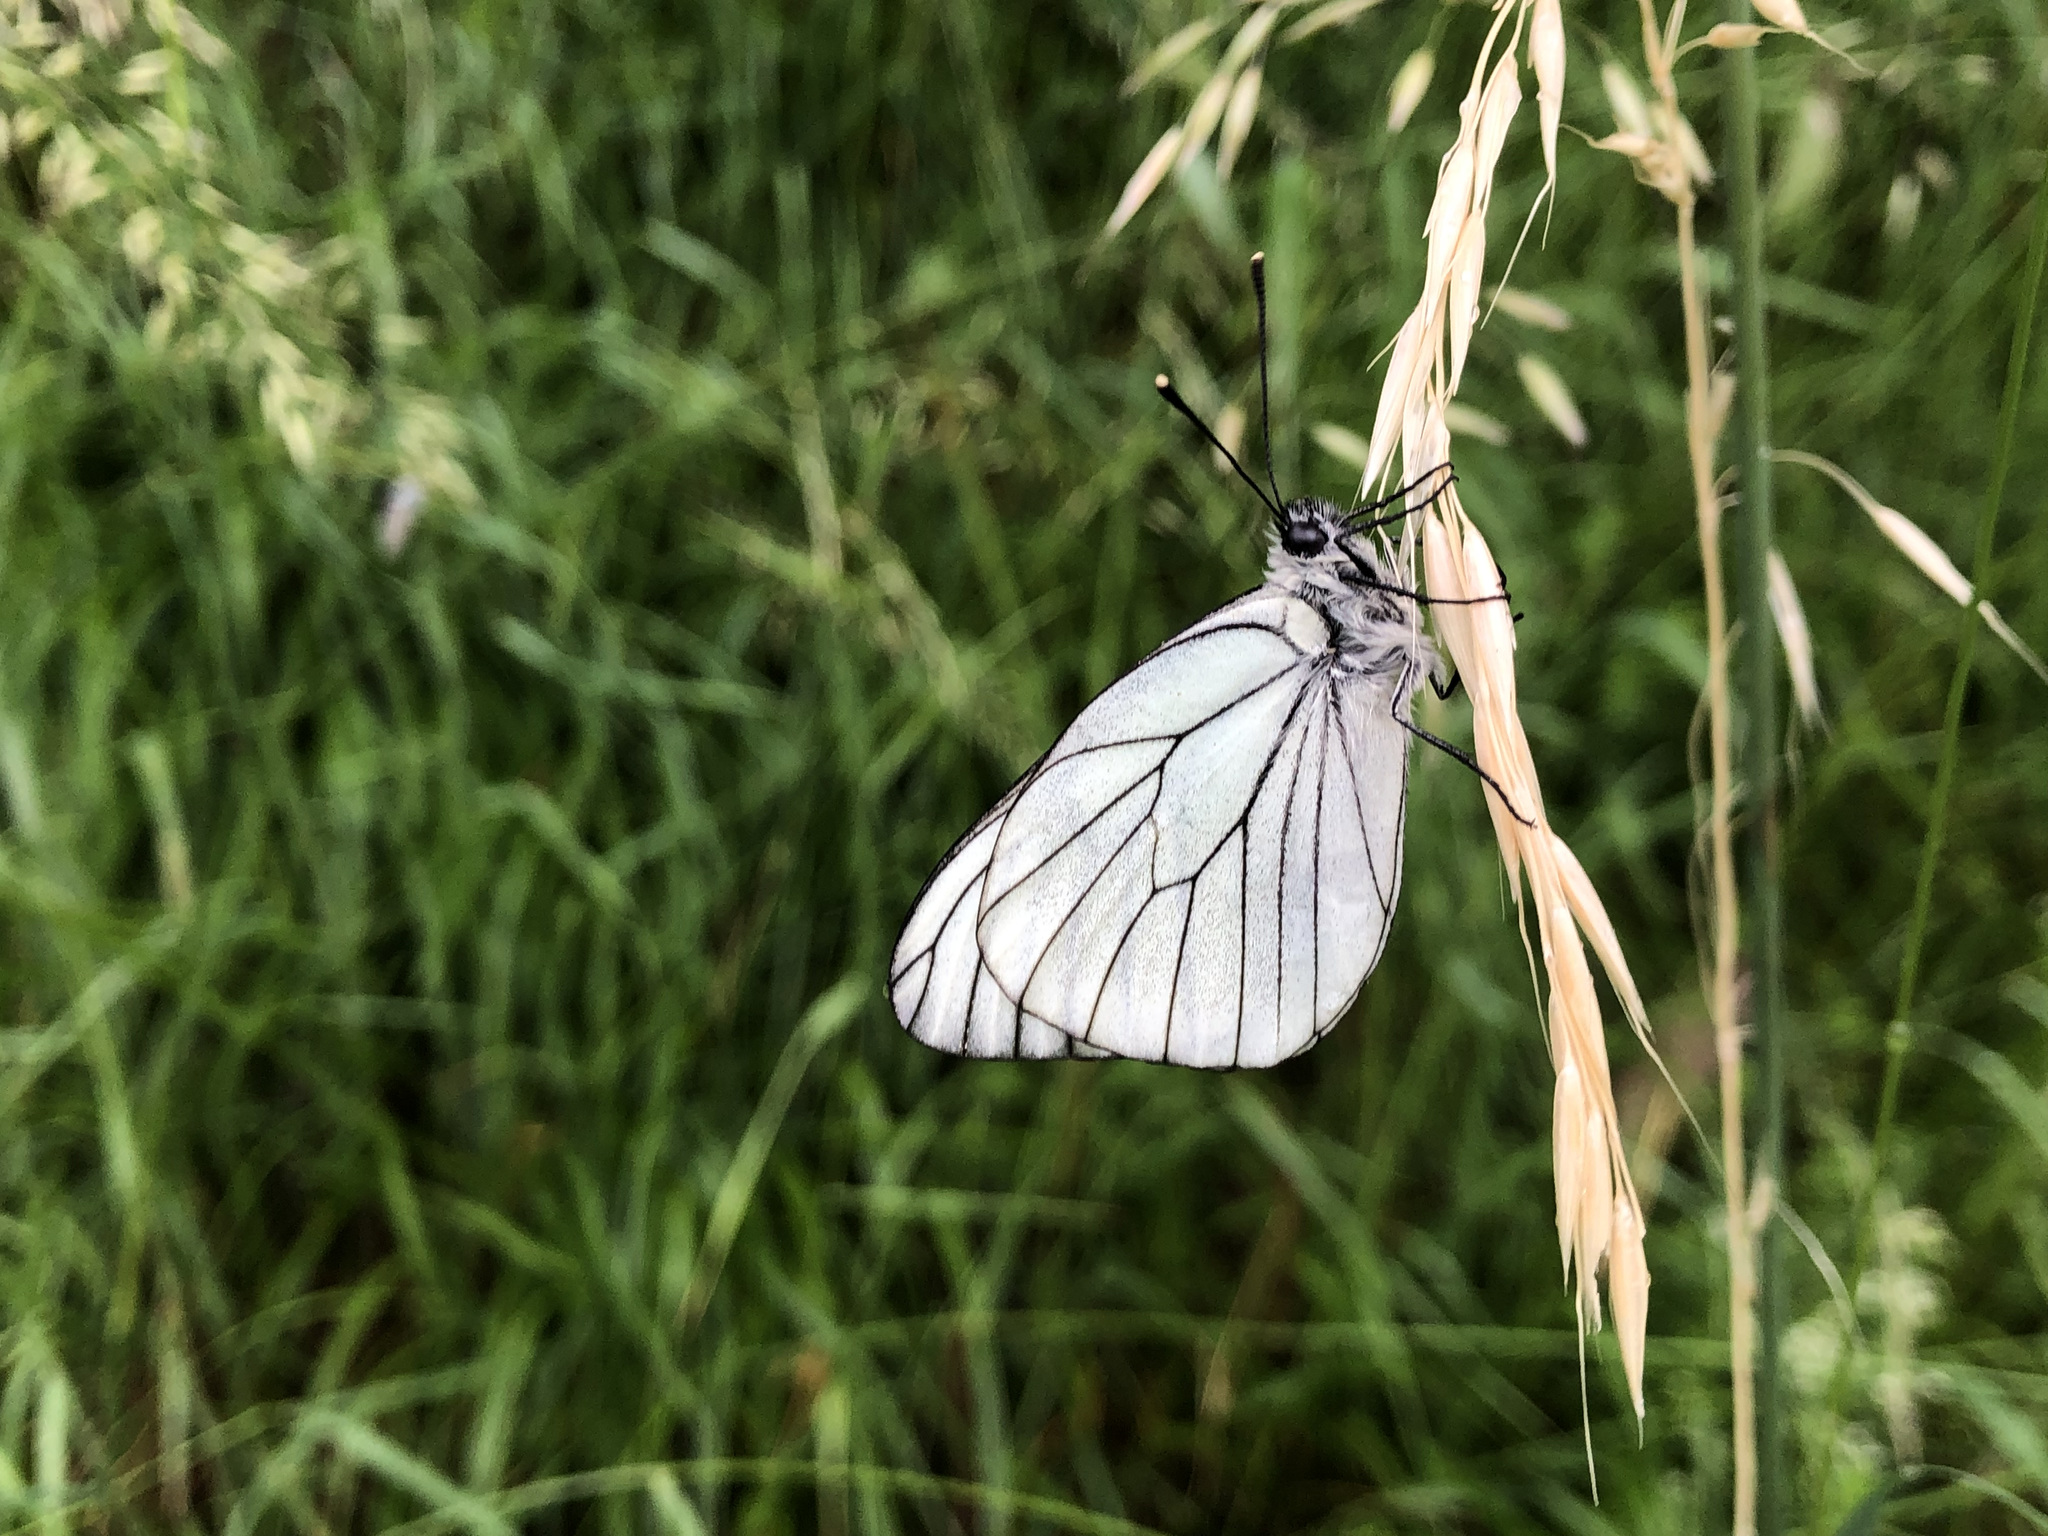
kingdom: Animalia
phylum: Arthropoda
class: Insecta
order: Lepidoptera
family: Pieridae
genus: Aporia
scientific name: Aporia crataegi
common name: Black-veined white
